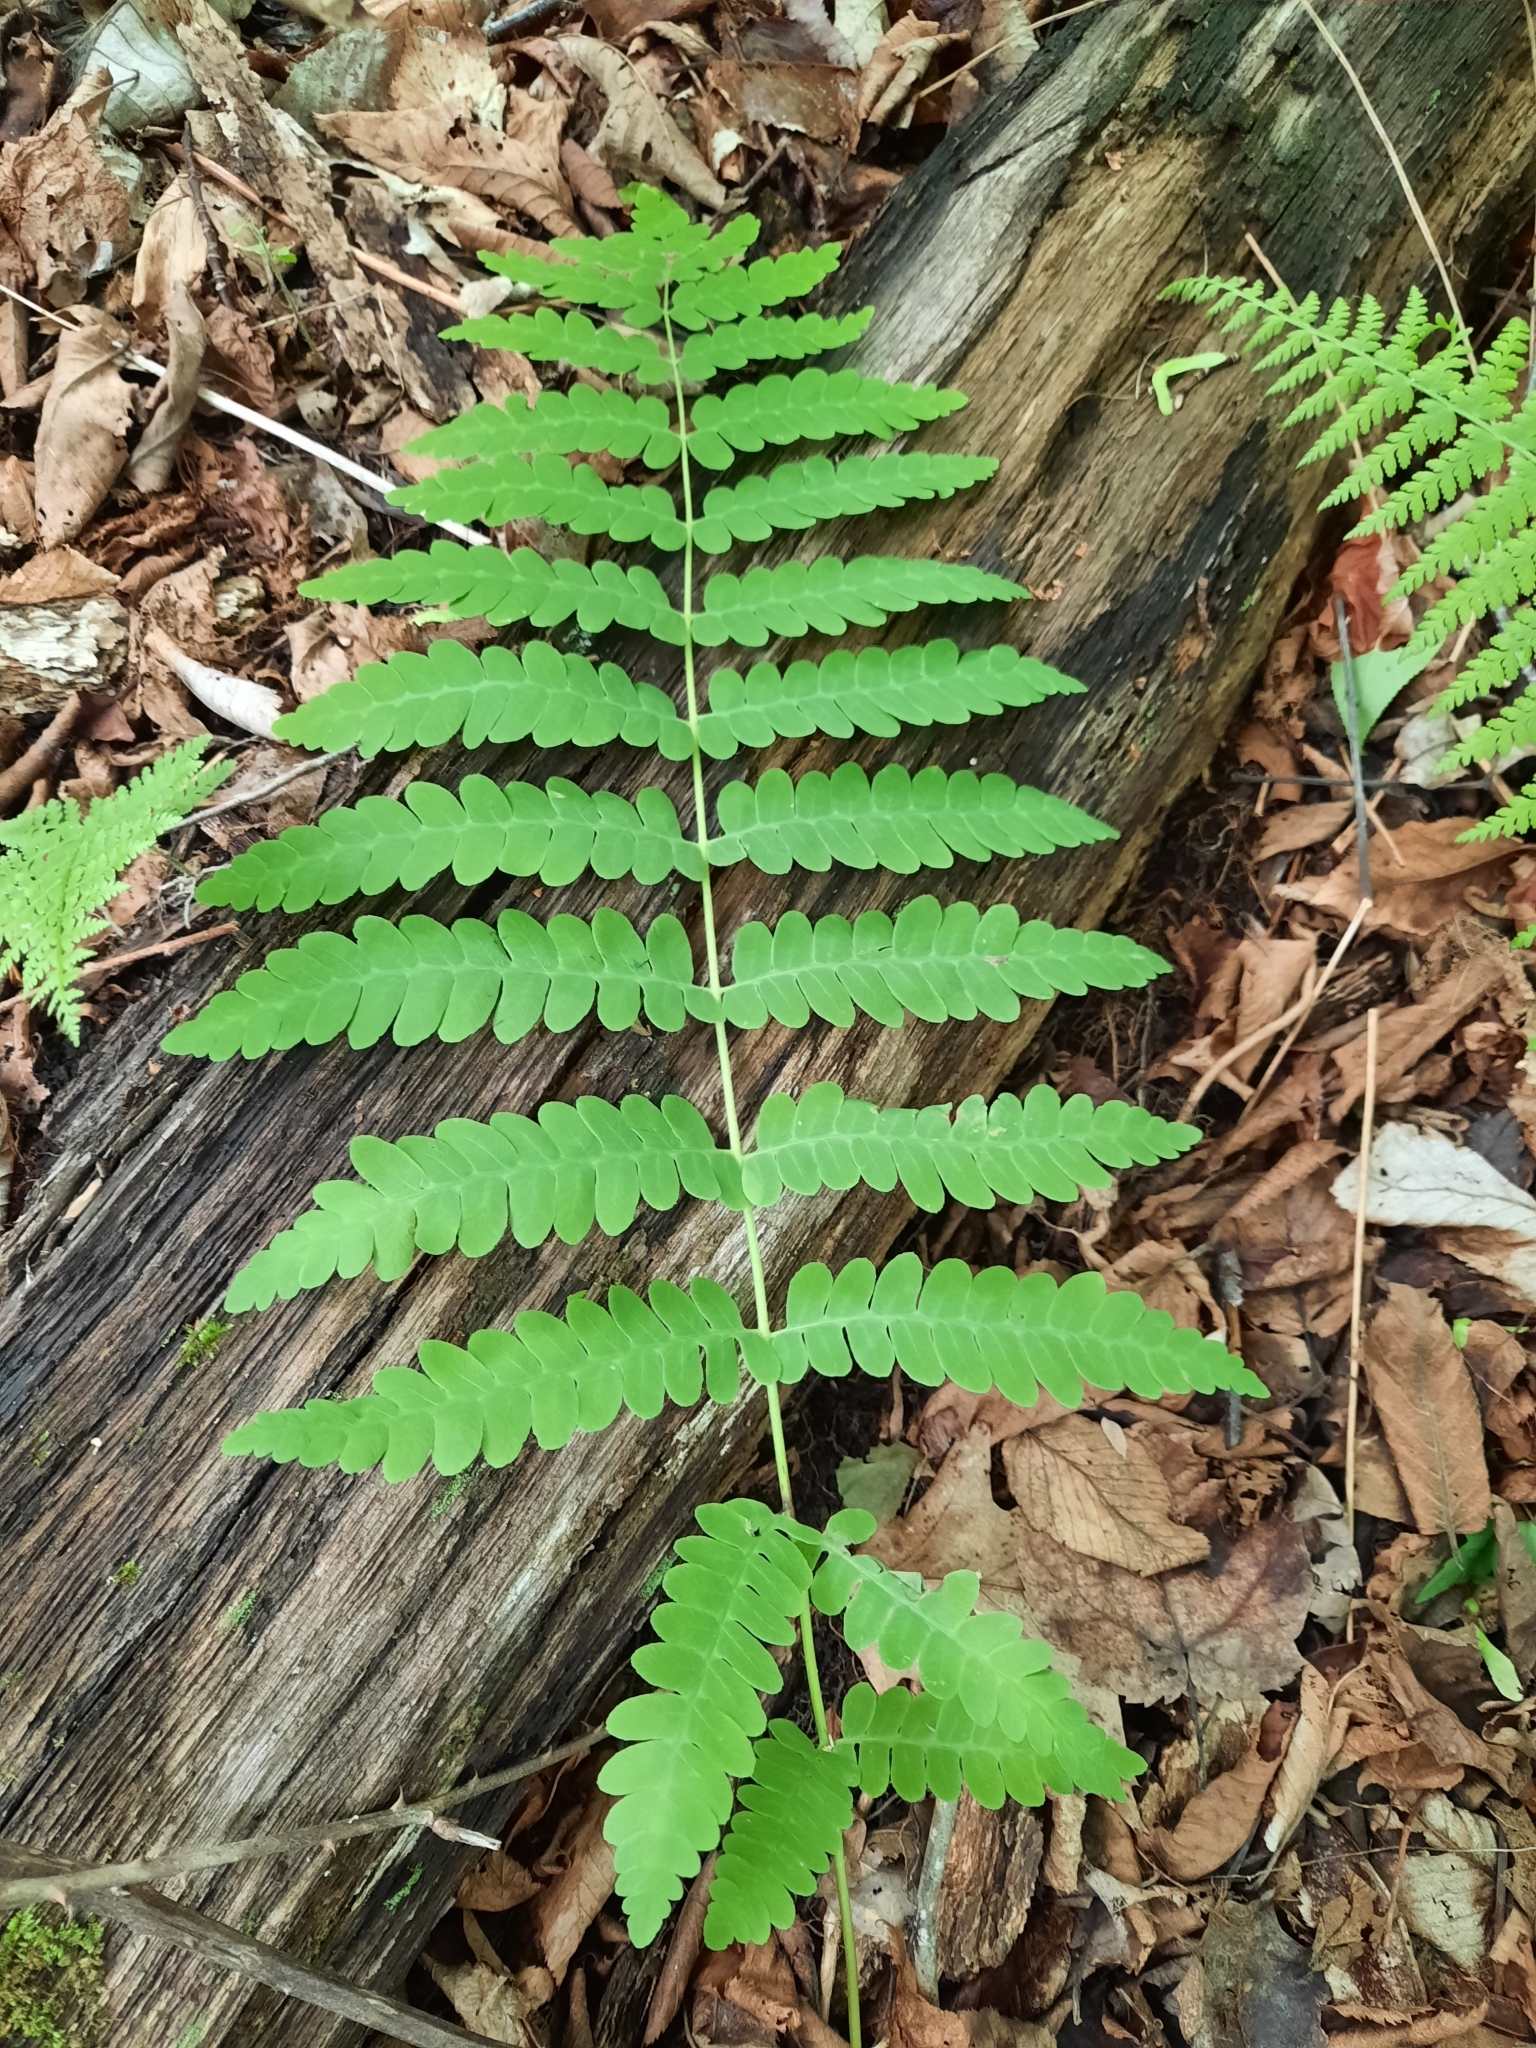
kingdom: Plantae
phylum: Tracheophyta
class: Polypodiopsida
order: Osmundales
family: Osmundaceae
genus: Claytosmunda
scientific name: Claytosmunda claytoniana
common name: Clayton's fern
